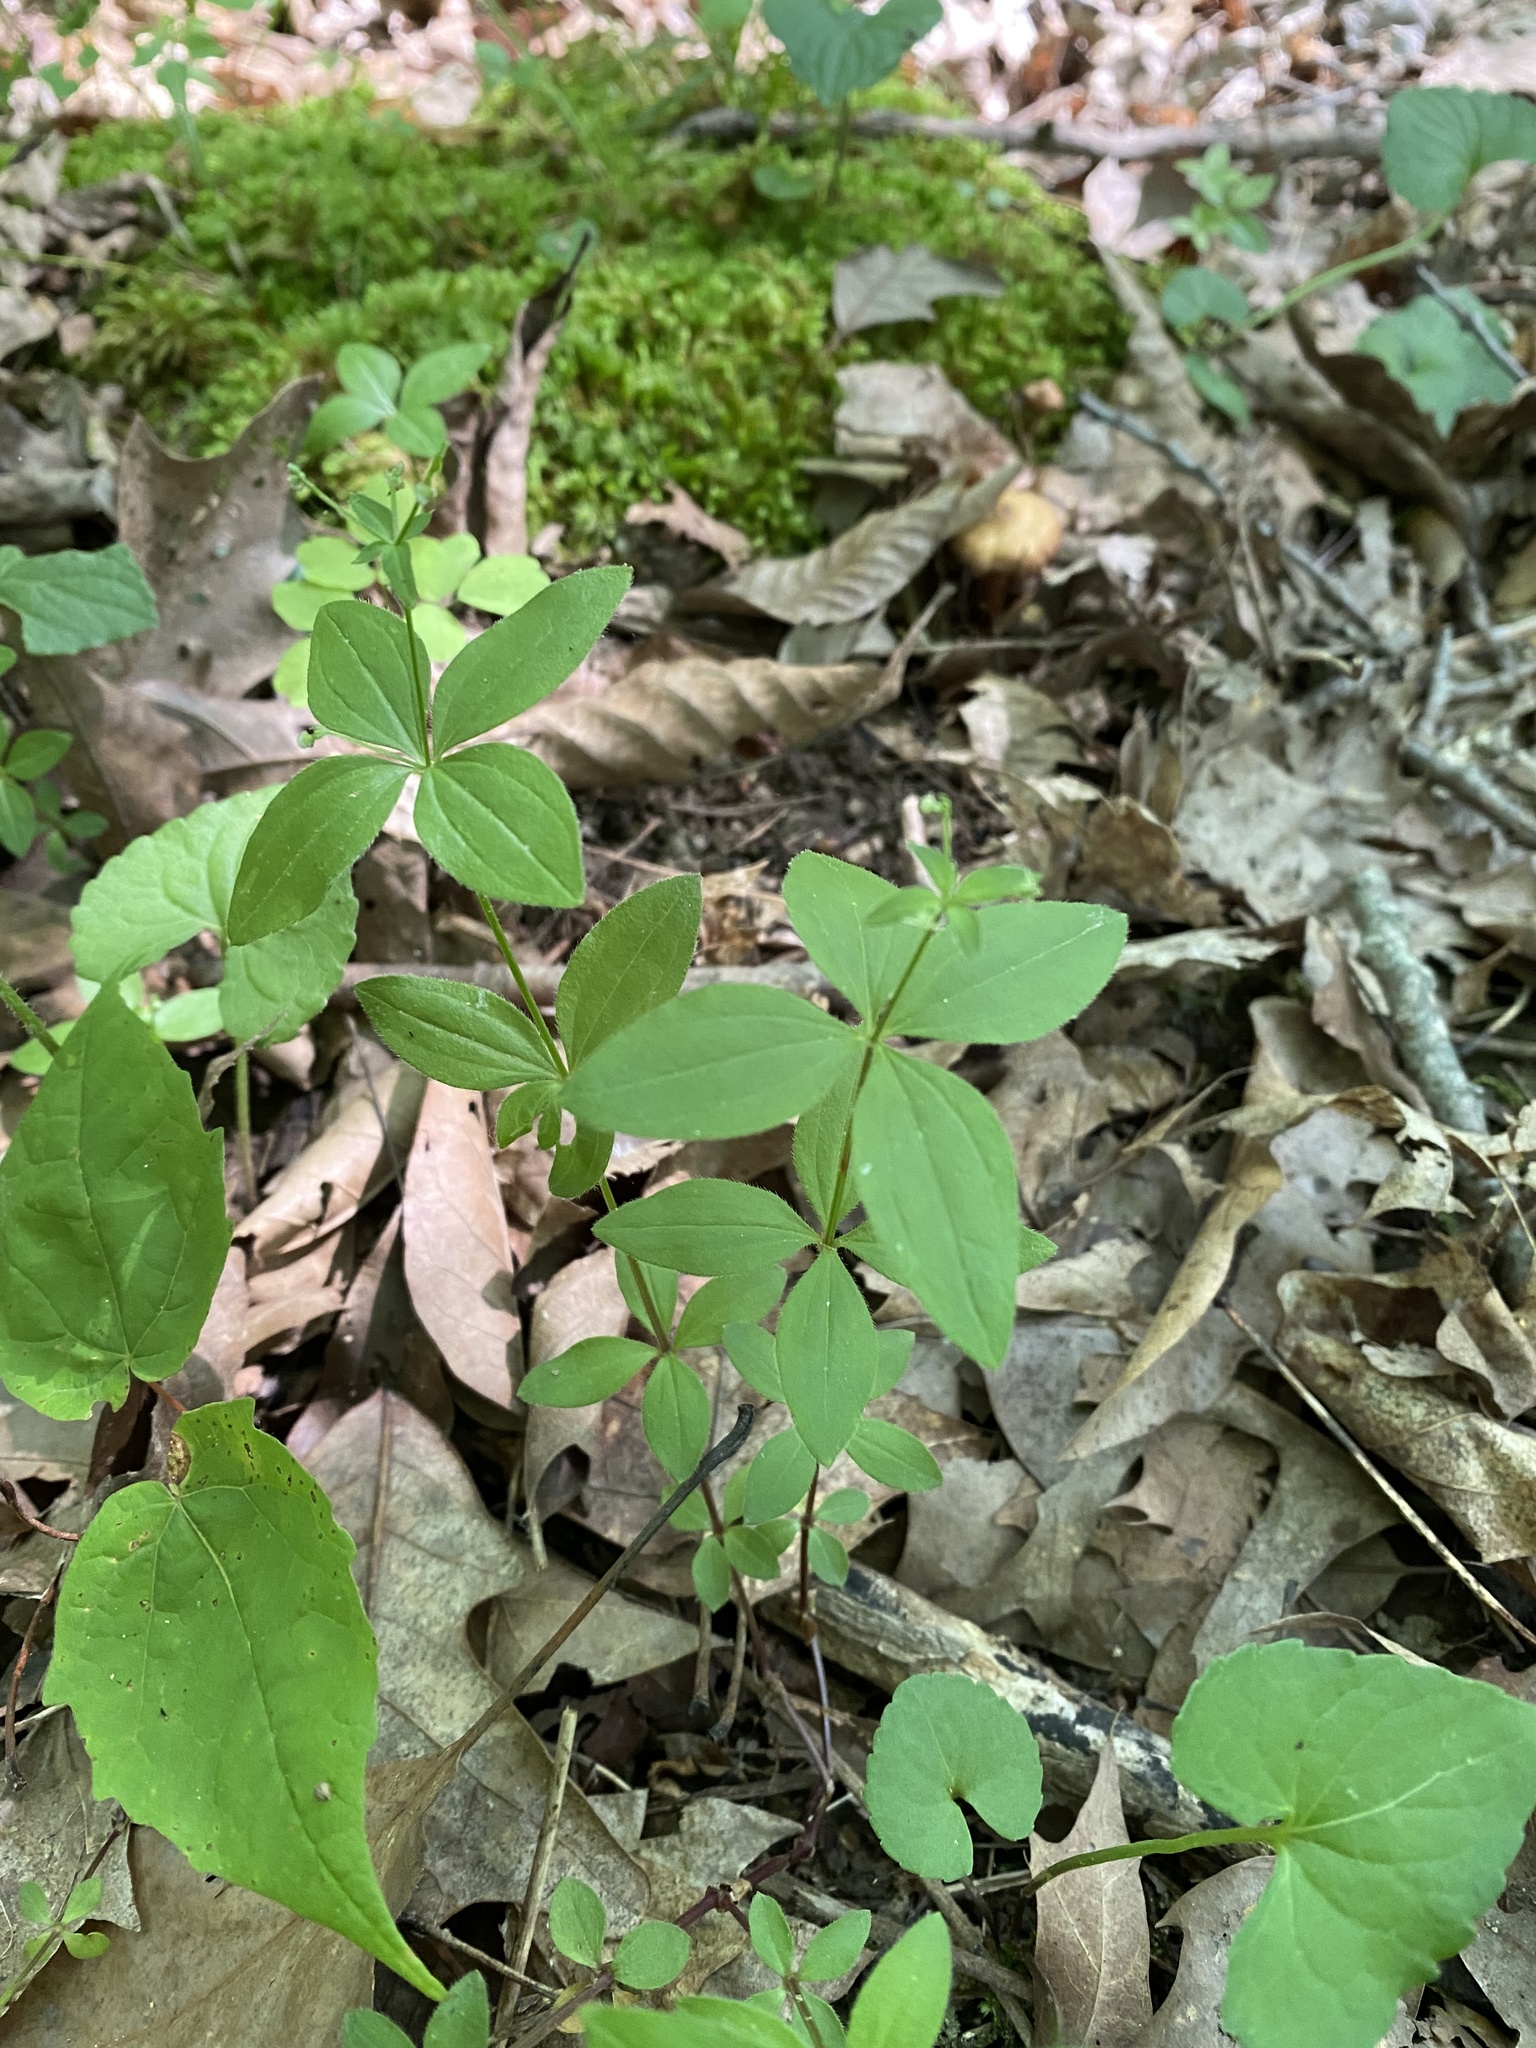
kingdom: Plantae
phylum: Tracheophyta
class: Magnoliopsida
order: Gentianales
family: Rubiaceae
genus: Galium
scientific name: Galium circaezans
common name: Forest bedstraw
